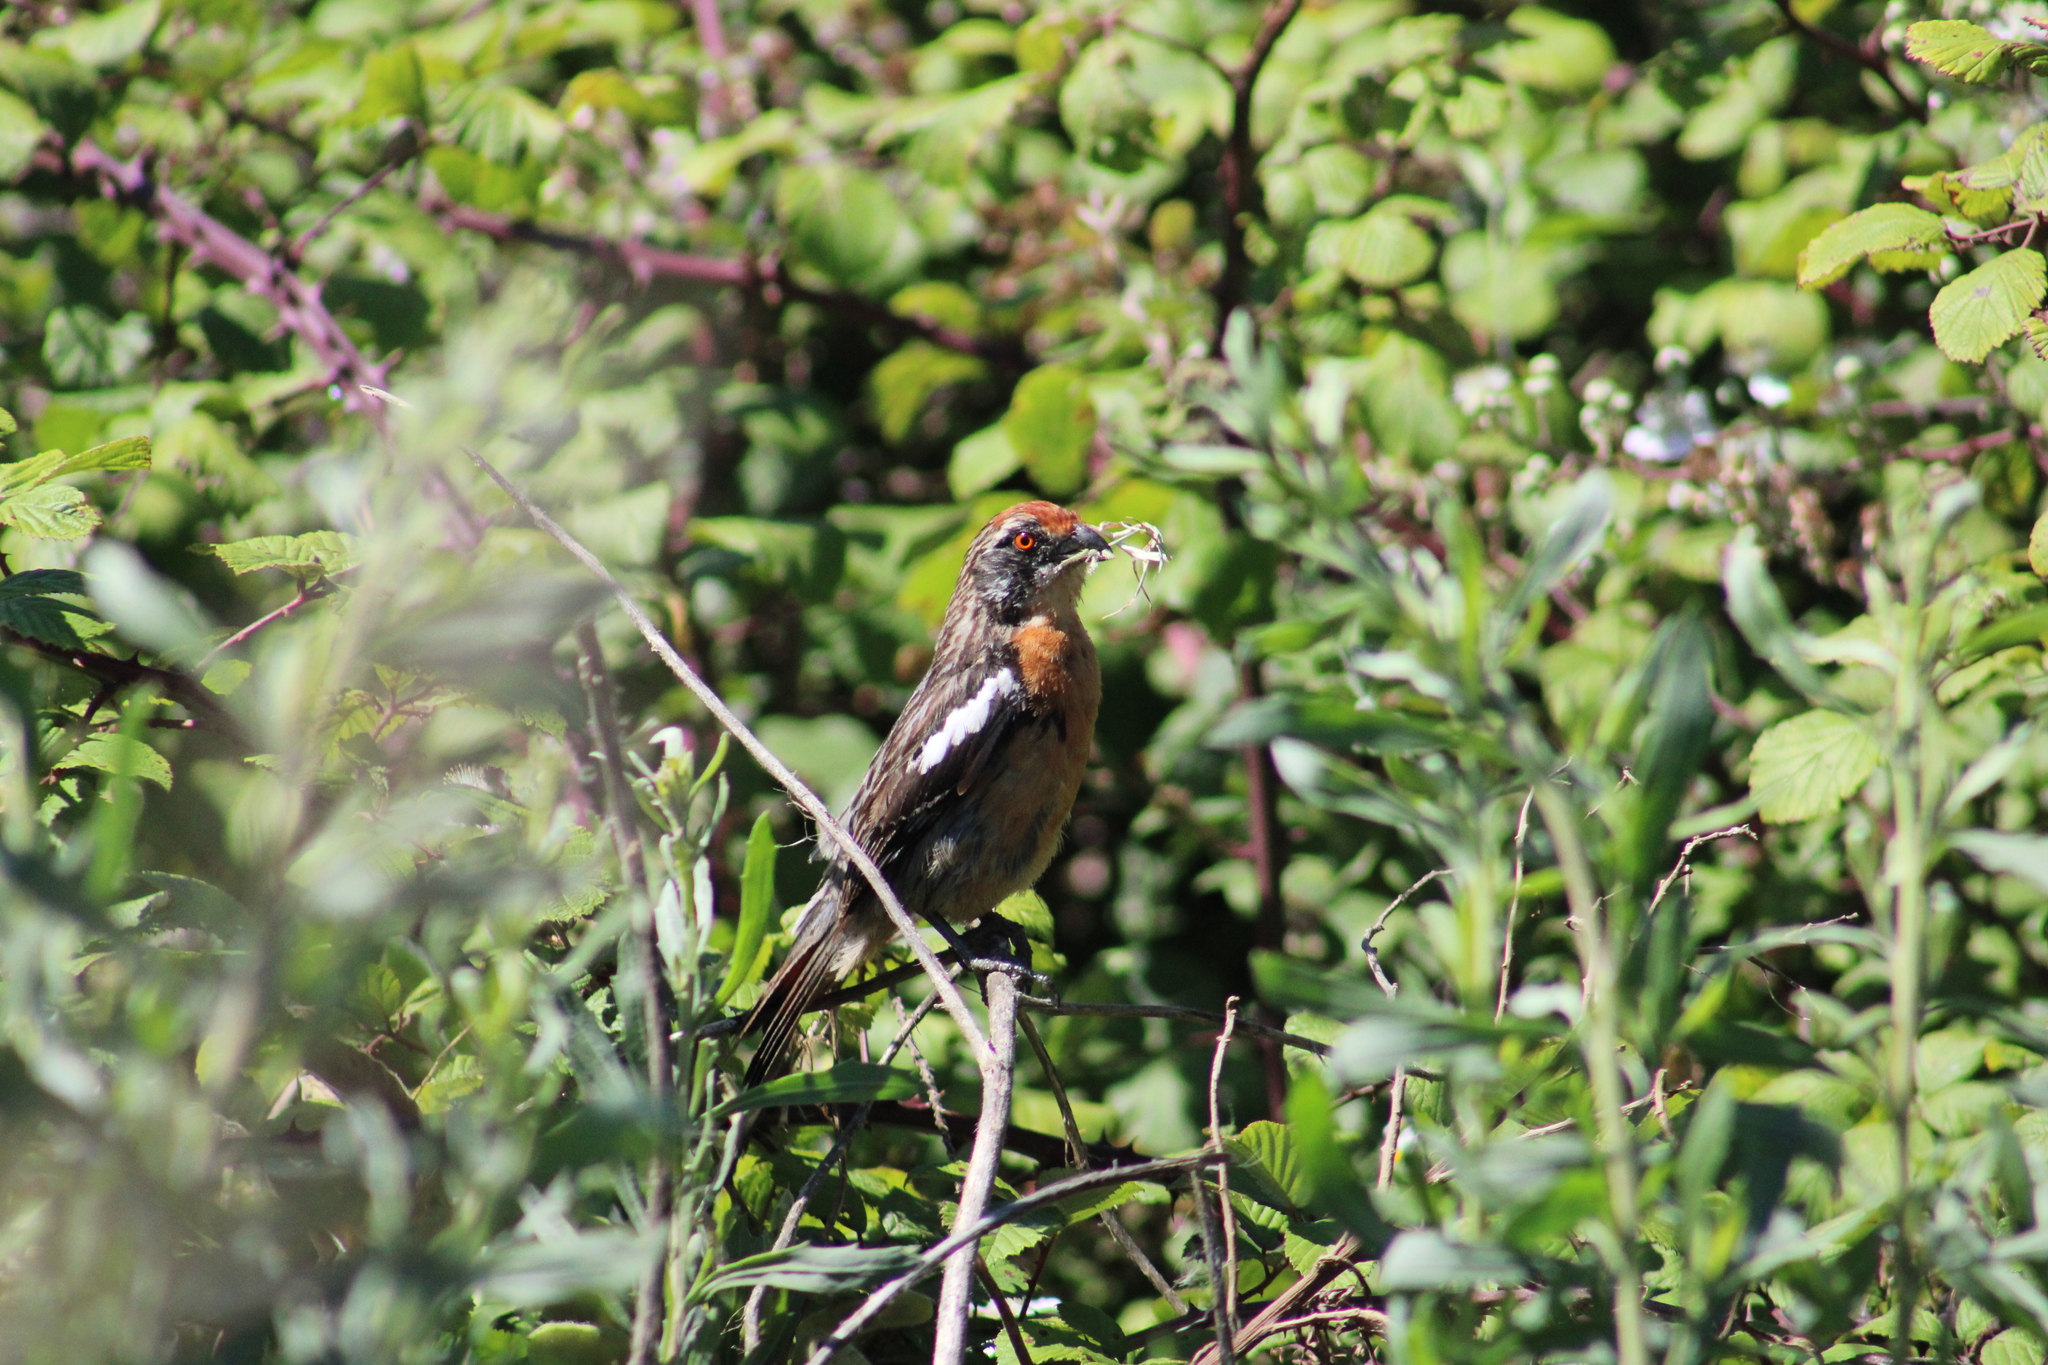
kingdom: Animalia
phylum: Chordata
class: Aves
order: Passeriformes
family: Cotingidae
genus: Phytotoma
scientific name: Phytotoma rara
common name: Rufous-tailed plantcutter
